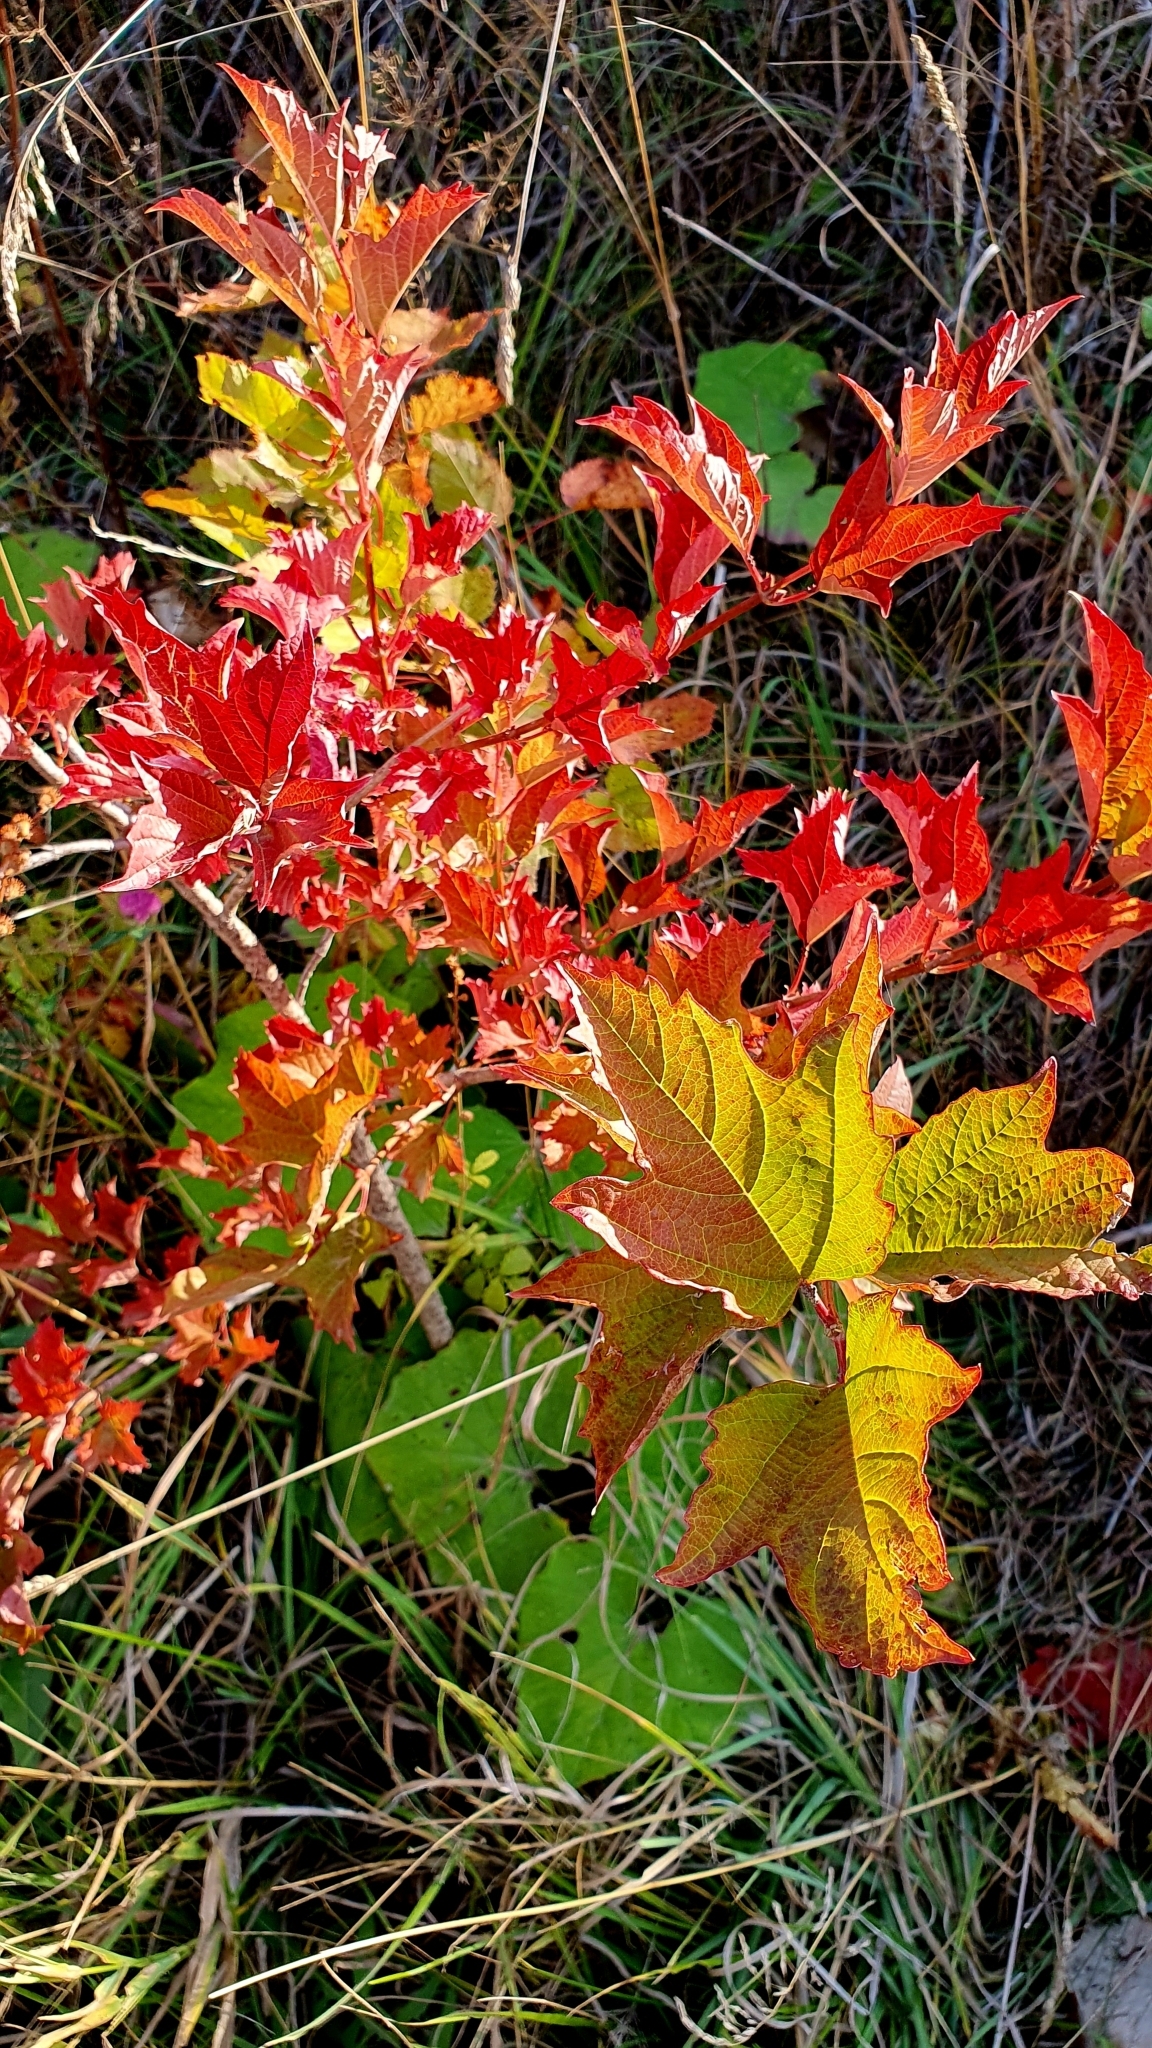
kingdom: Plantae
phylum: Tracheophyta
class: Magnoliopsida
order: Dipsacales
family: Viburnaceae
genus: Viburnum
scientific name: Viburnum opulus
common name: Guelder-rose
